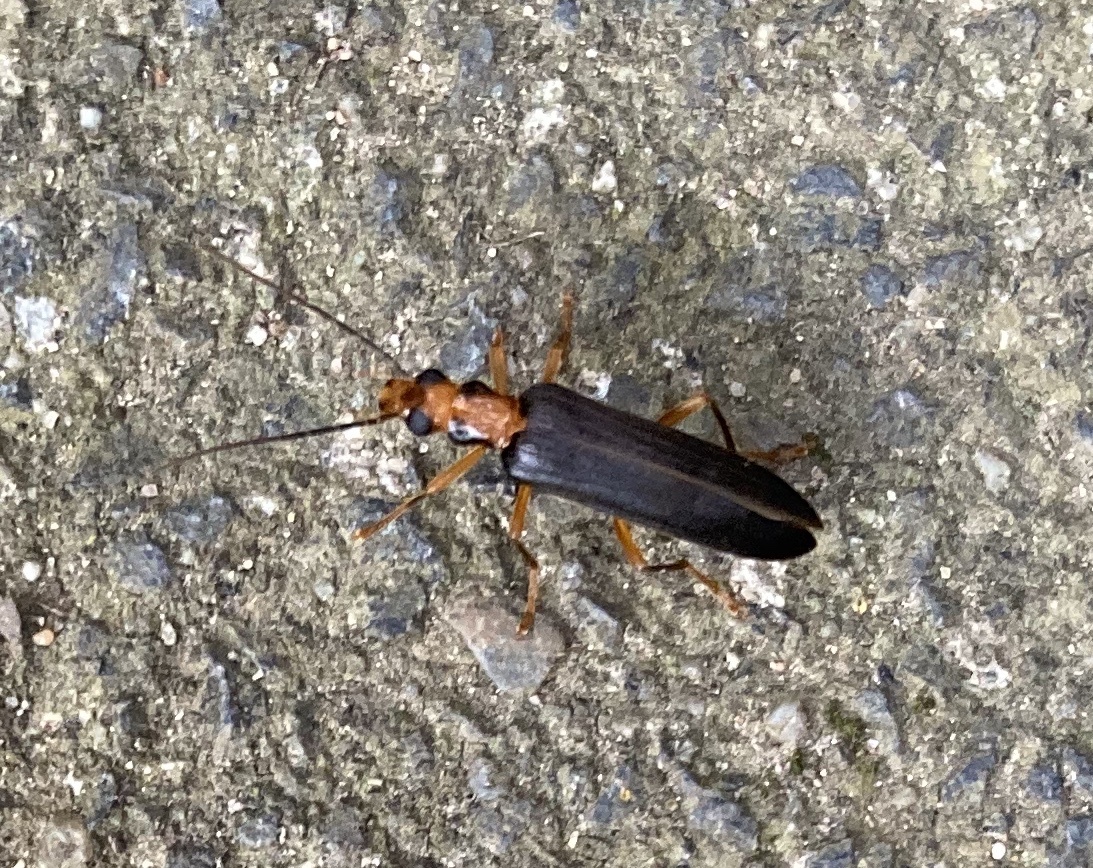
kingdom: Animalia
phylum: Arthropoda
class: Insecta
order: Coleoptera
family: Oedemeridae
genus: Nacerdes
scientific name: Nacerdes carniolica
